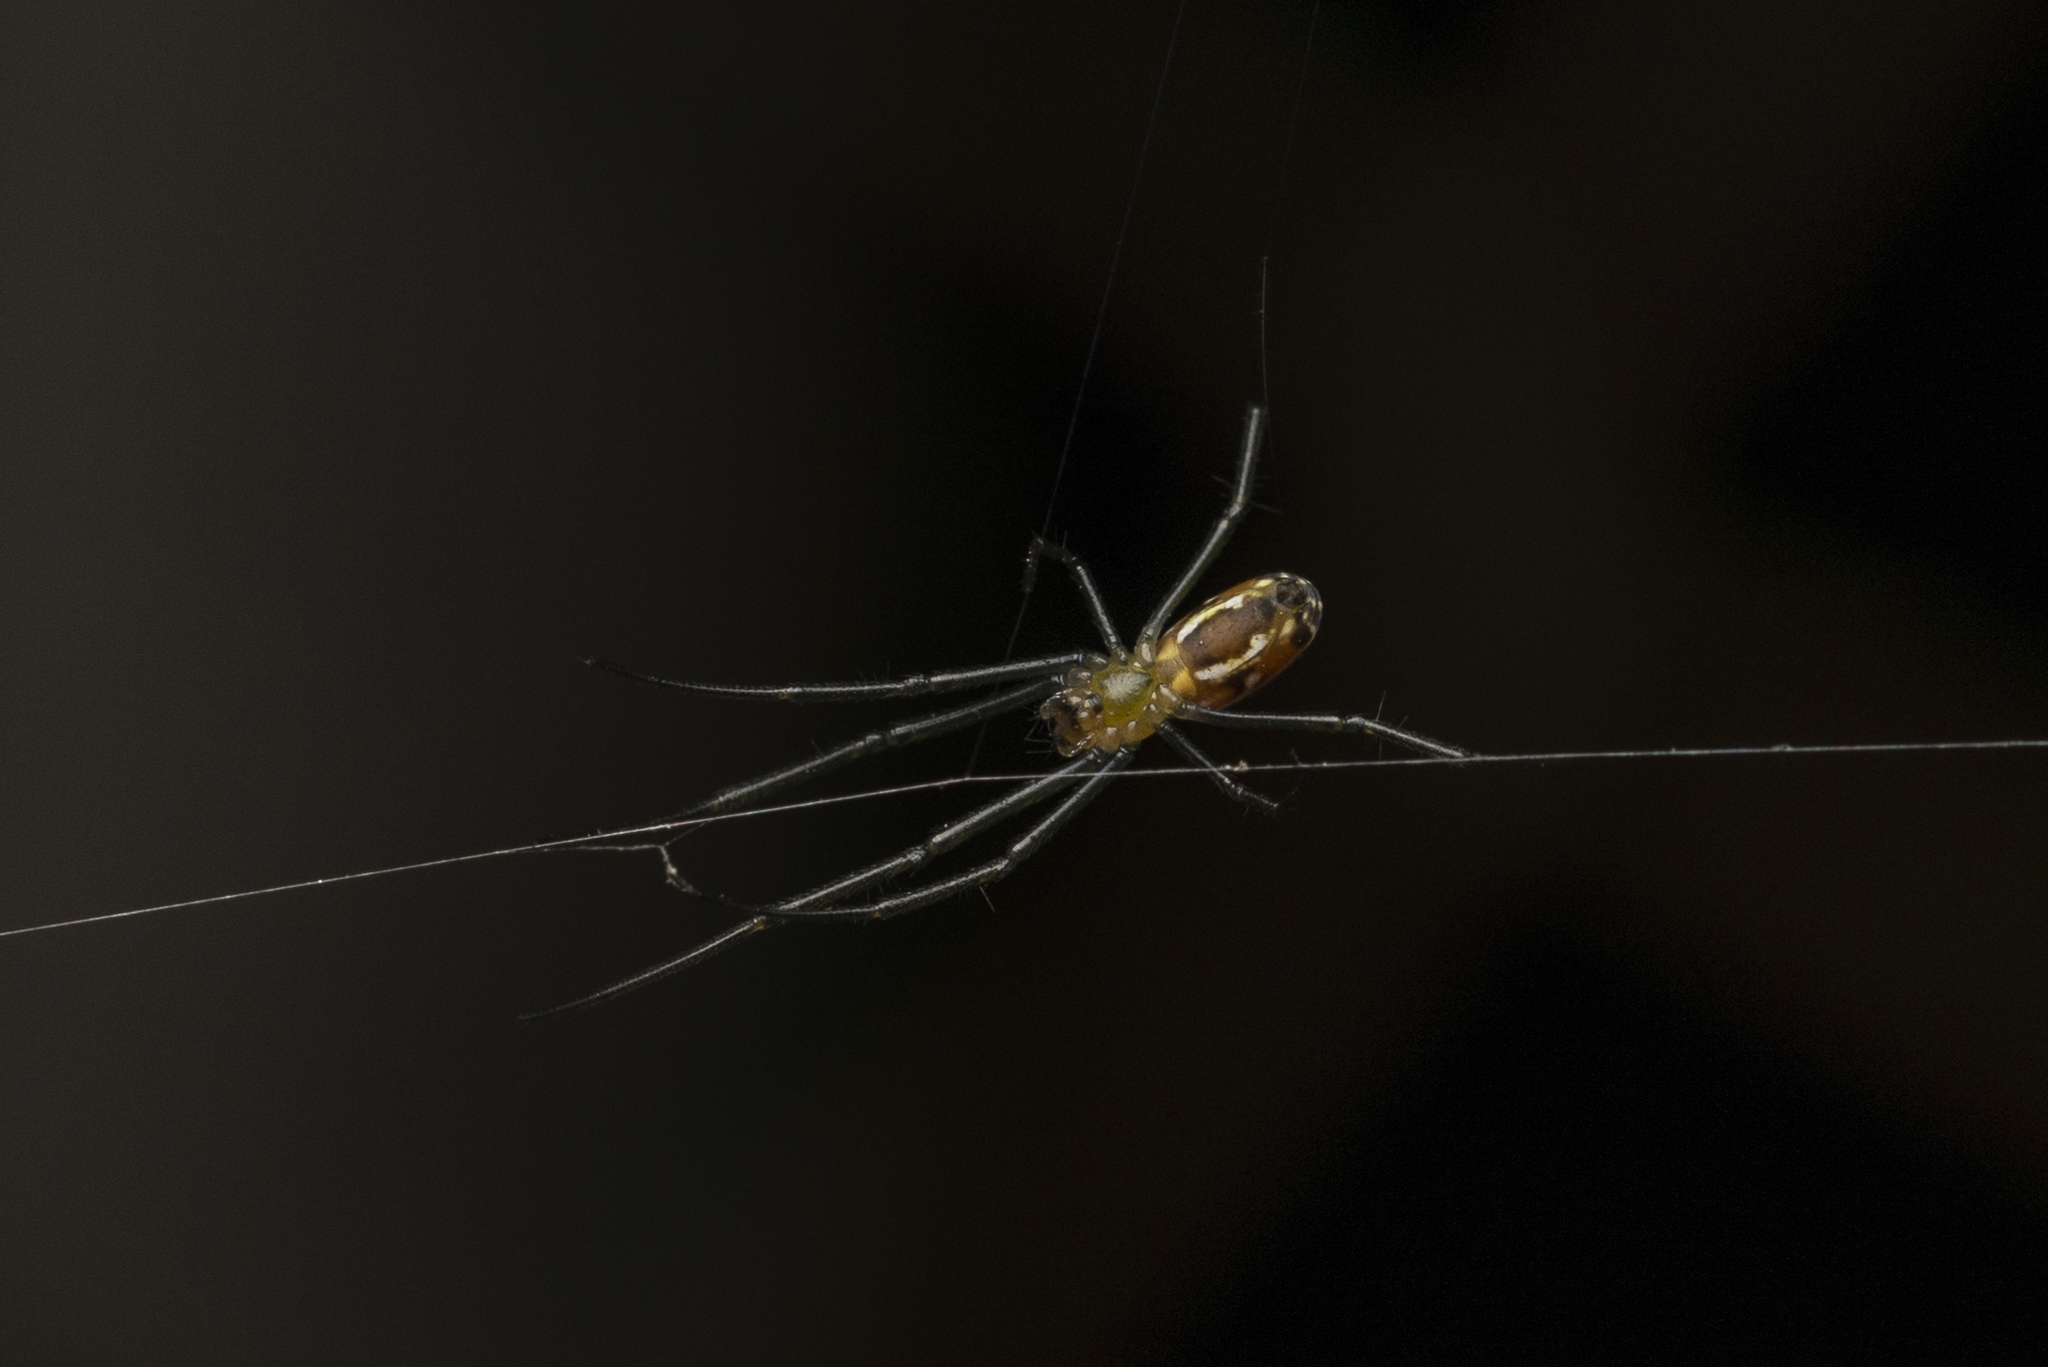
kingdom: Animalia
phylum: Arthropoda
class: Arachnida
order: Araneae
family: Araneidae
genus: Nephila
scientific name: Nephila pilipes
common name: Giant golden orb weaver
